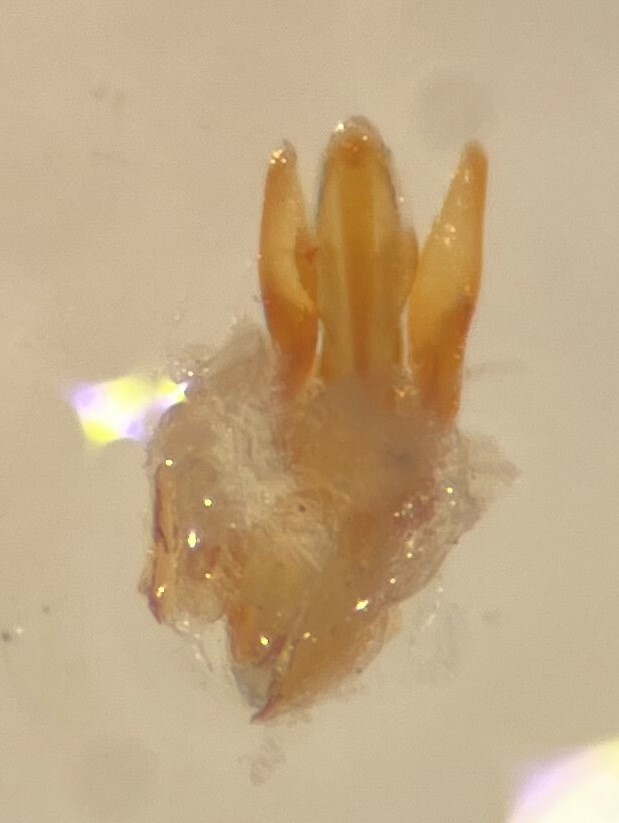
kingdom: Animalia
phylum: Arthropoda
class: Insecta
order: Coleoptera
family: Elmidae
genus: Stenelmis
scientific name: Stenelmis crenata
